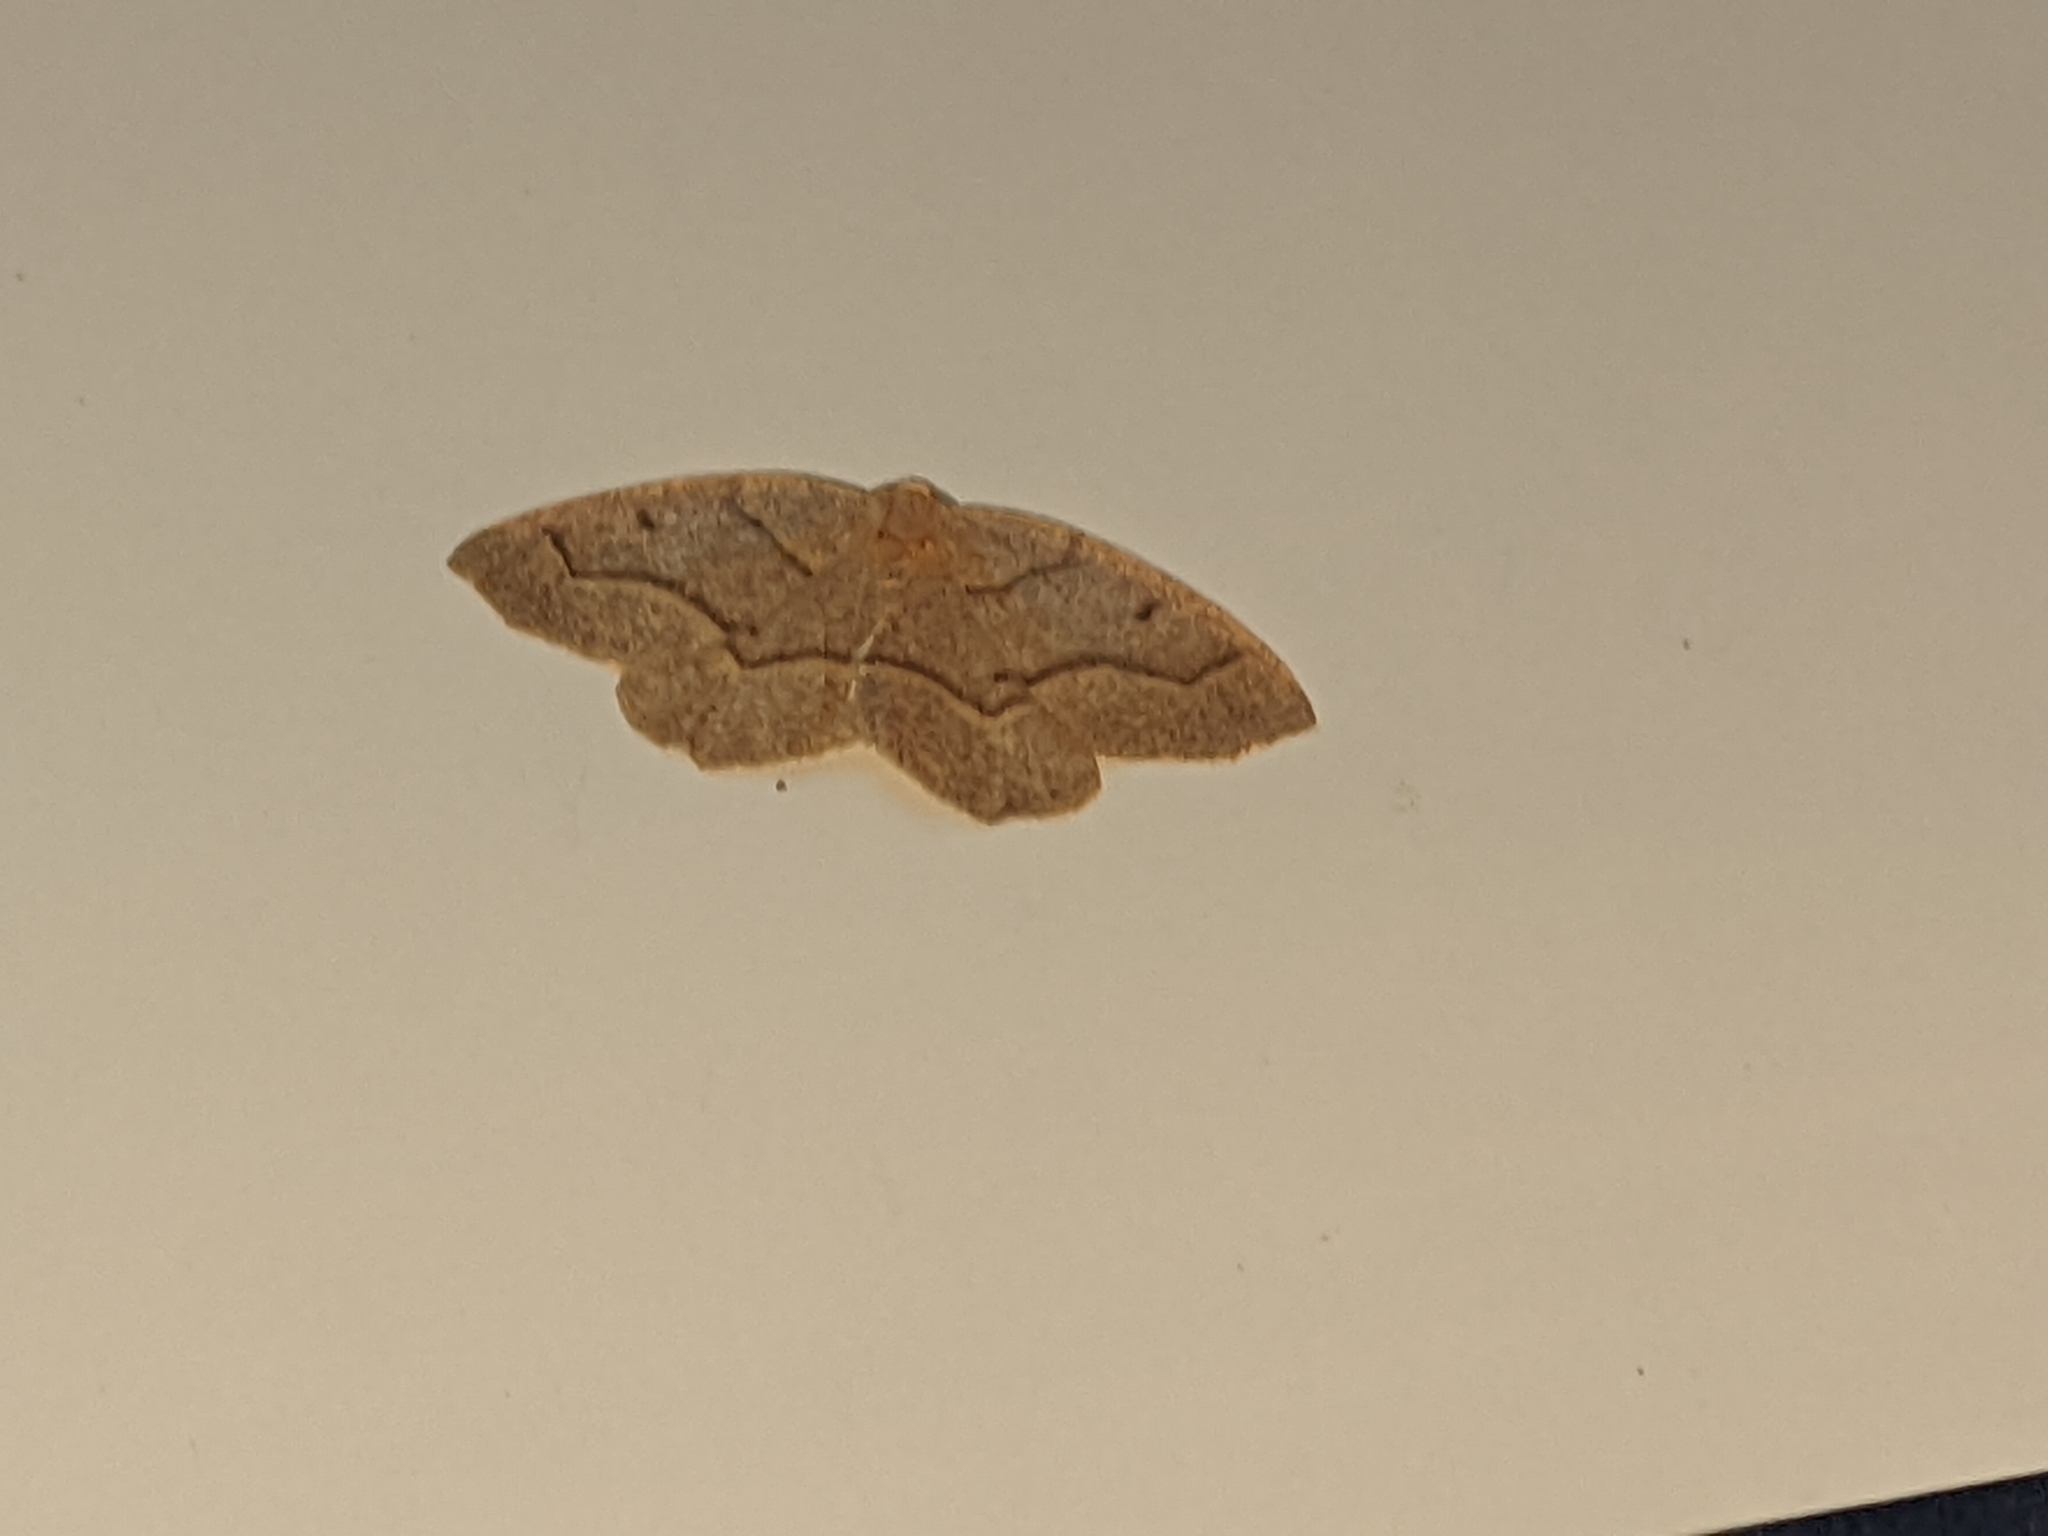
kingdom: Animalia
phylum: Arthropoda
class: Insecta
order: Lepidoptera
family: Geometridae
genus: Lambdina
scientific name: Lambdina fiscellaria
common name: Hemlock looper
